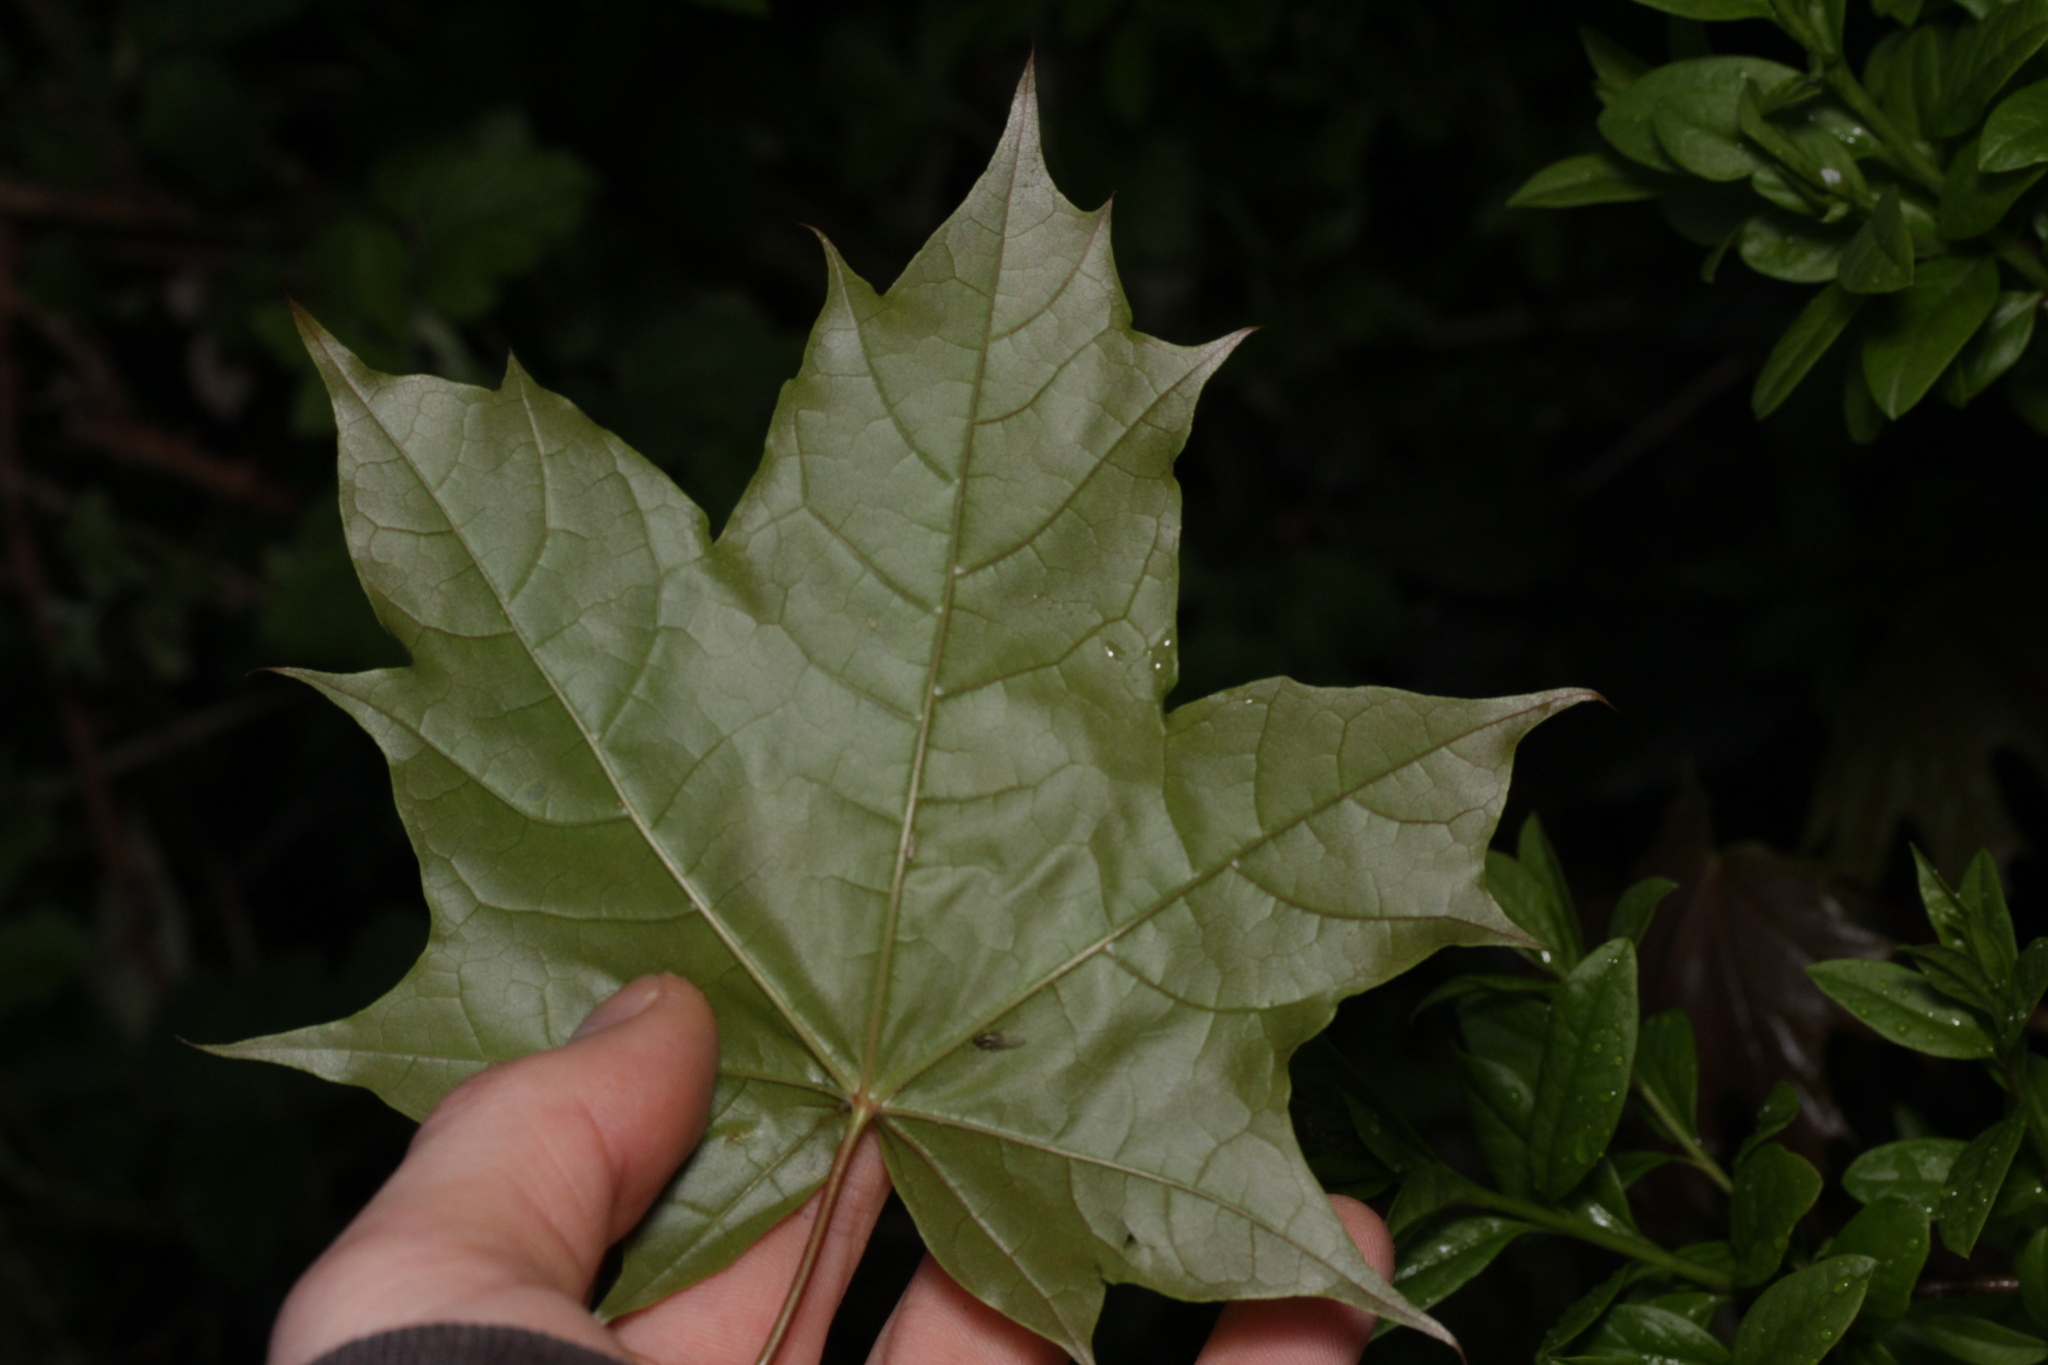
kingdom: Plantae
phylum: Tracheophyta
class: Magnoliopsida
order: Sapindales
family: Sapindaceae
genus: Acer
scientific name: Acer platanoides
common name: Norway maple
